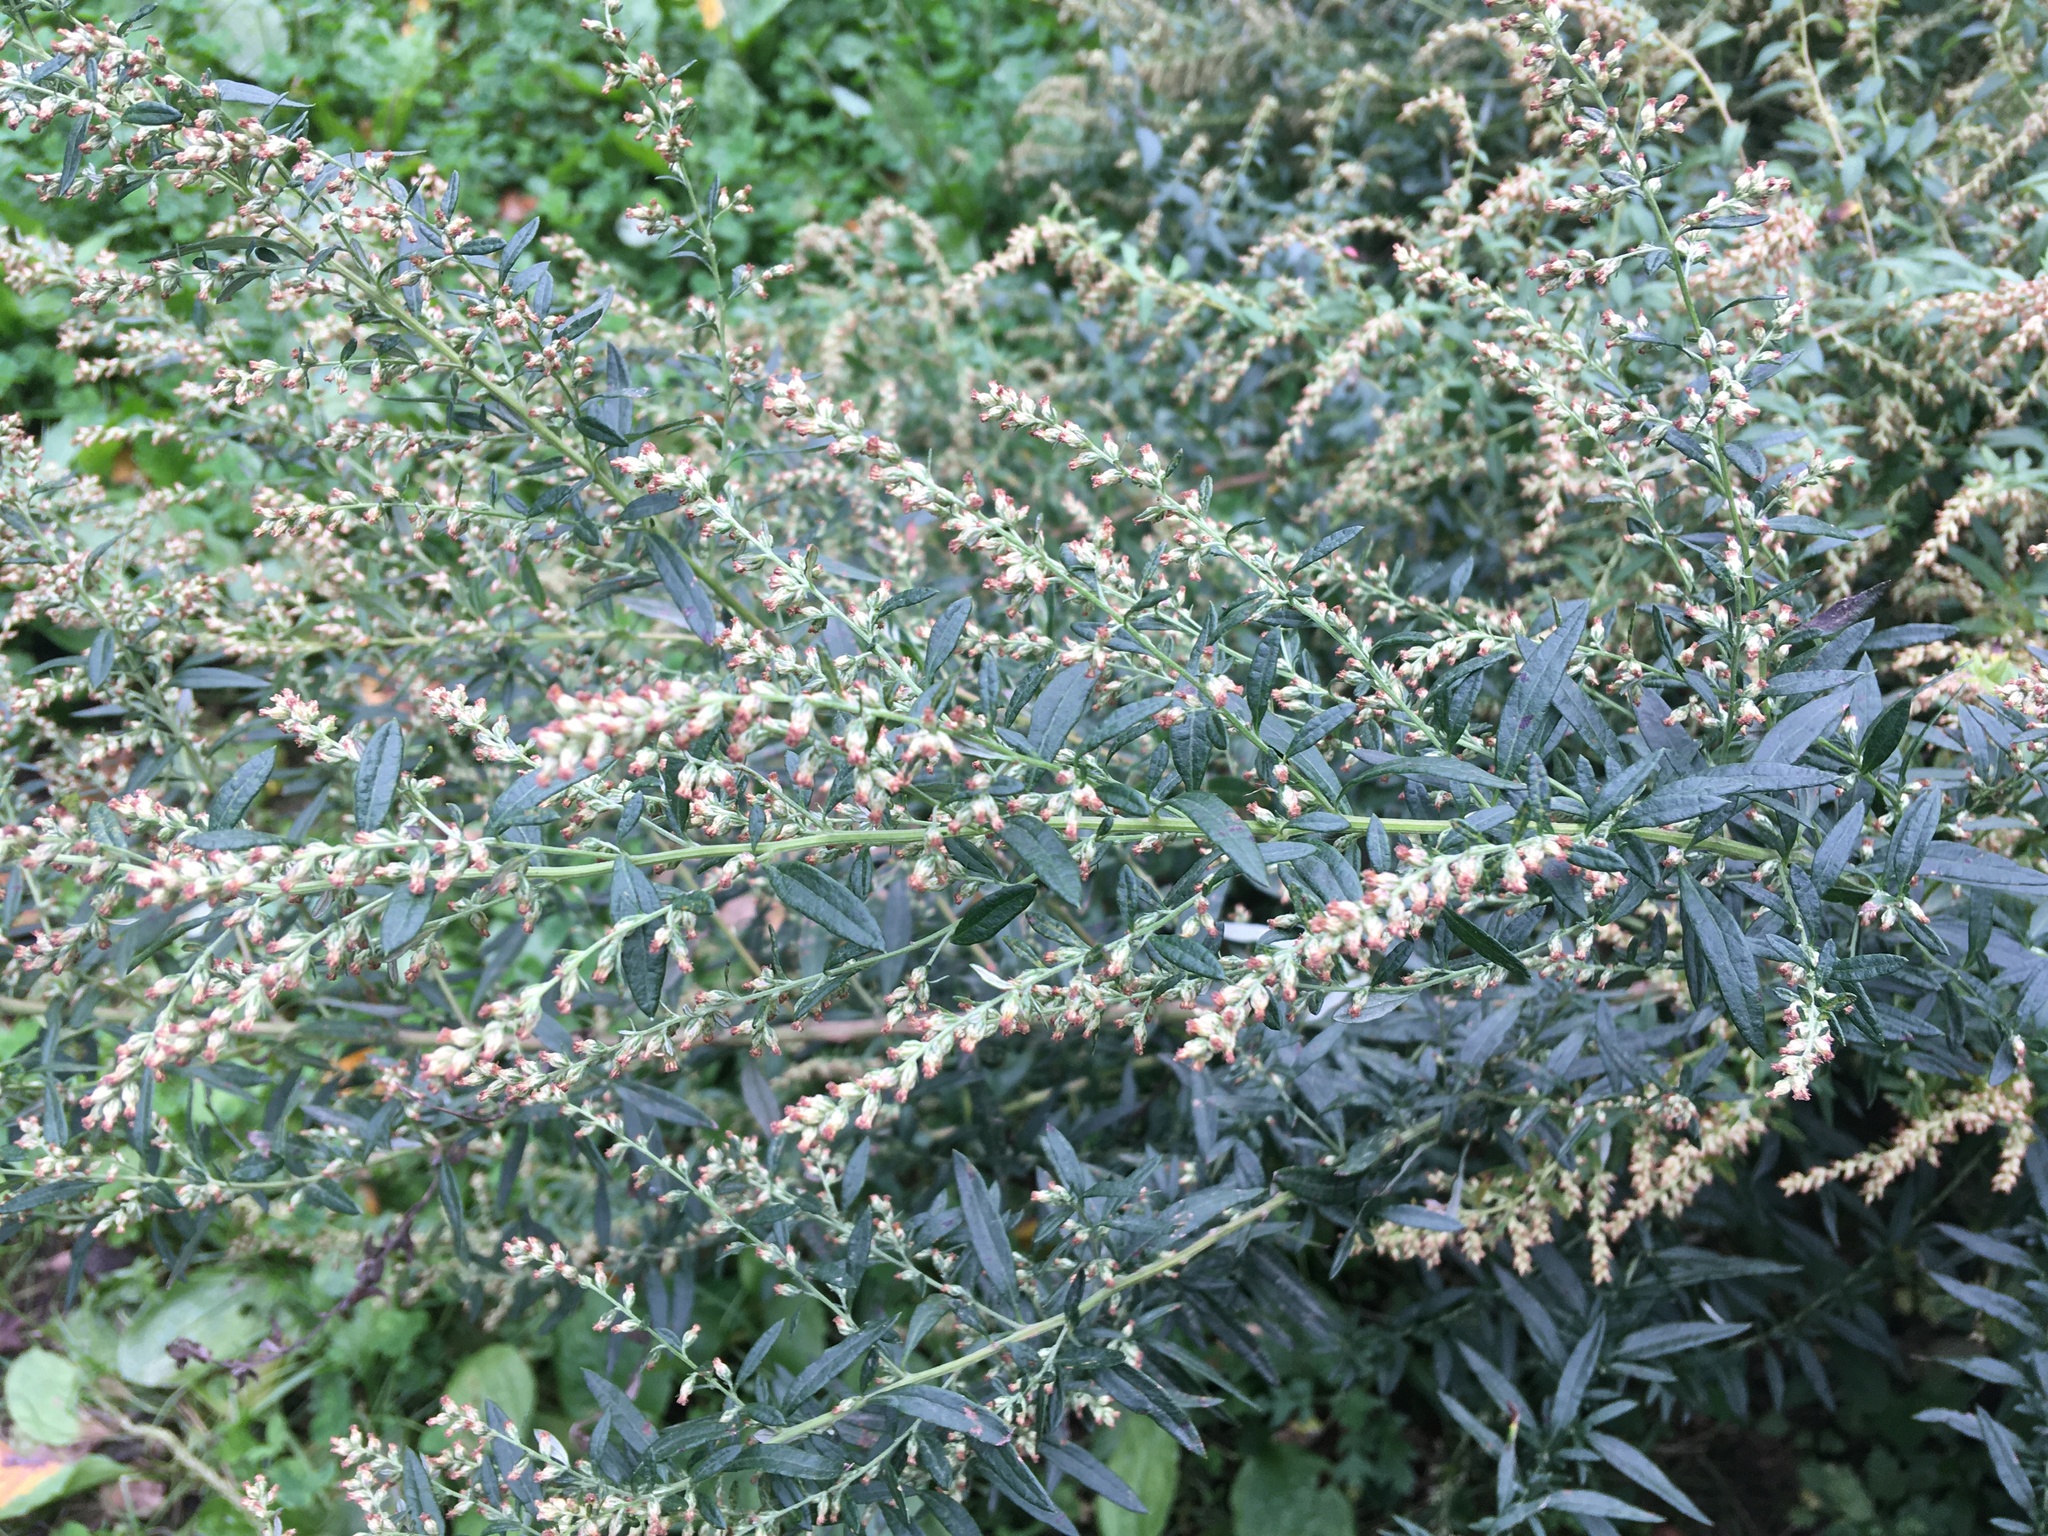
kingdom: Plantae
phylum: Tracheophyta
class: Magnoliopsida
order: Asterales
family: Asteraceae
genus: Artemisia
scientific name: Artemisia vulgaris
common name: Mugwort
